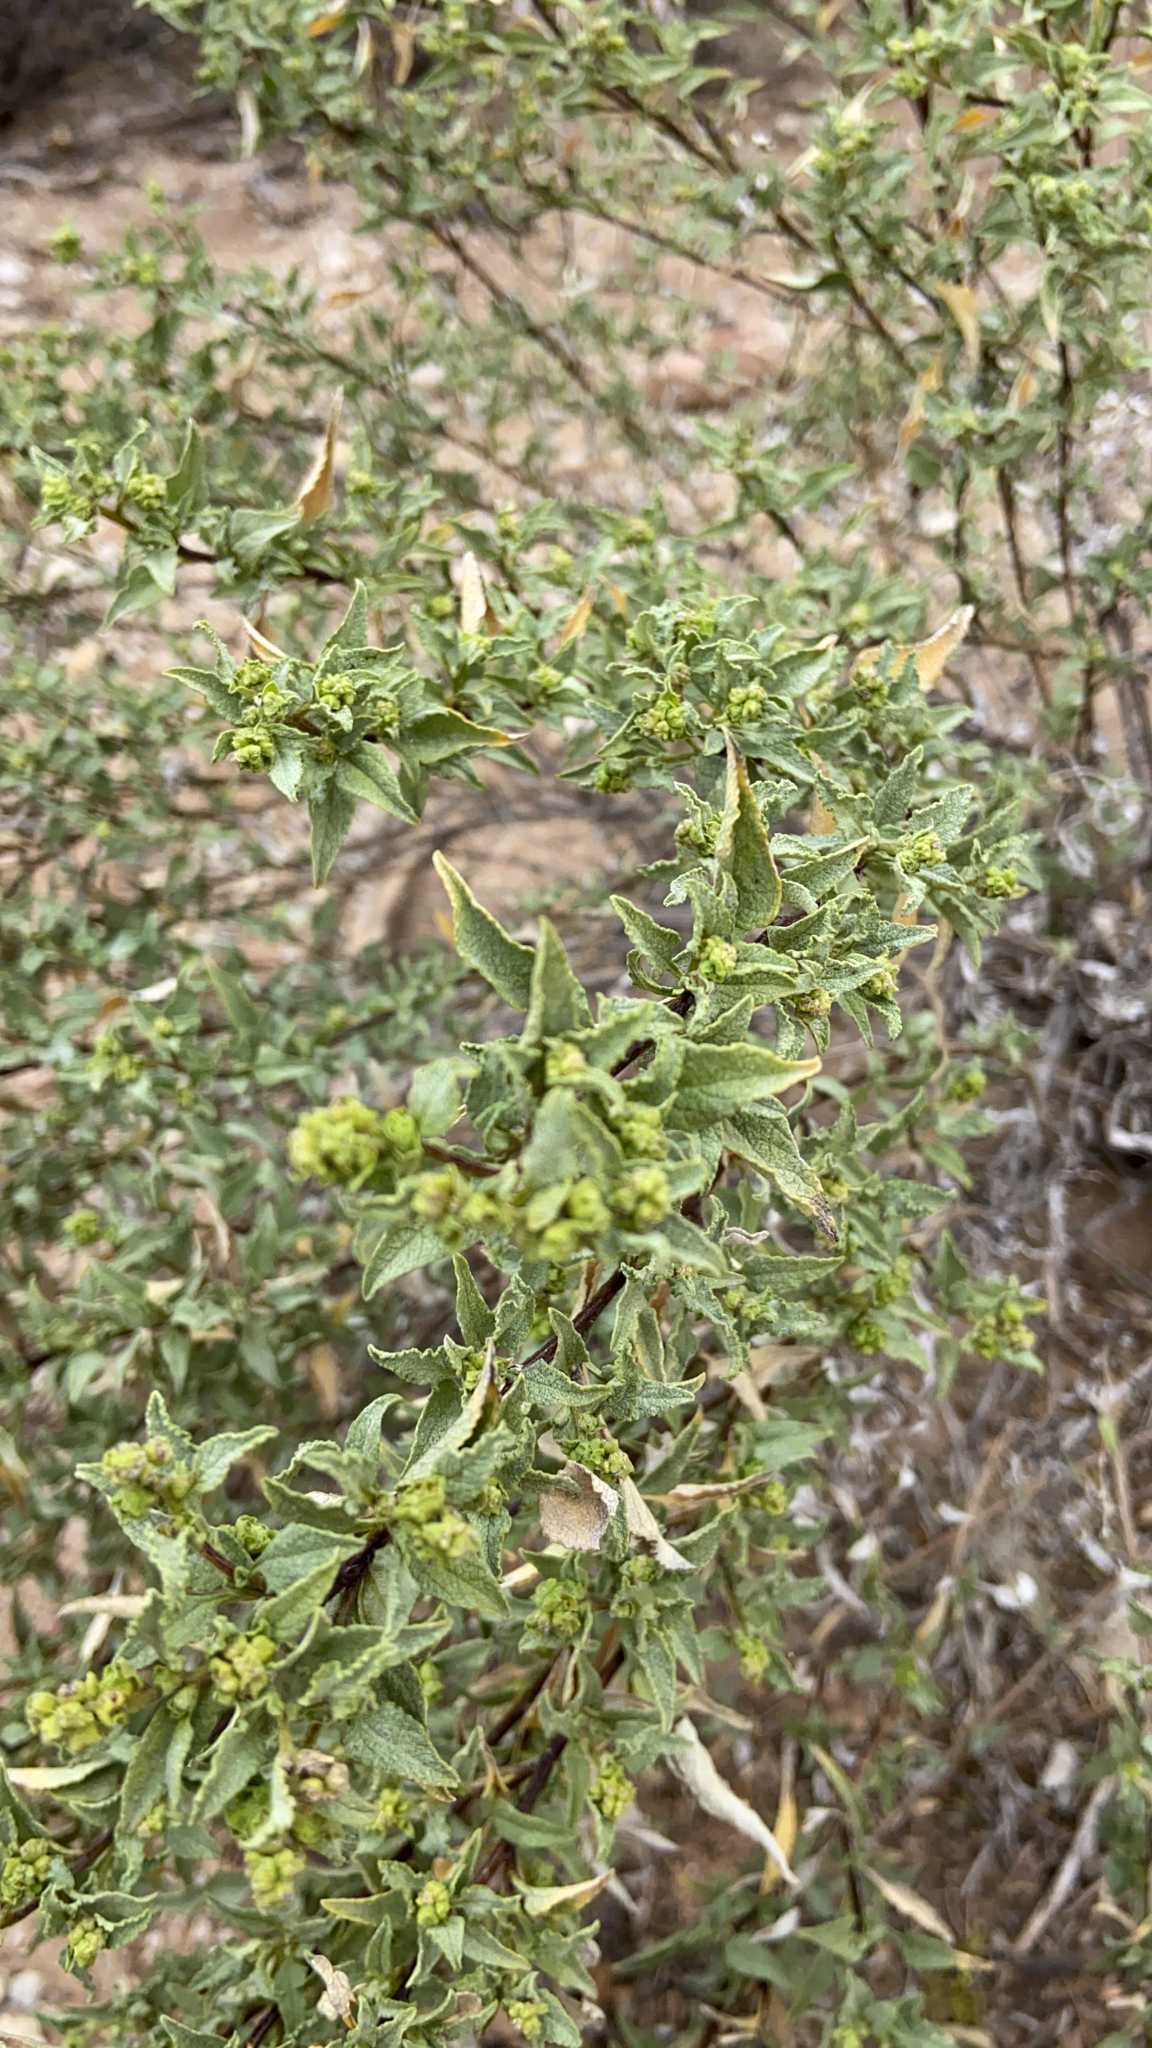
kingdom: Plantae
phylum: Tracheophyta
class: Magnoliopsida
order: Asterales
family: Asteraceae
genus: Ambrosia
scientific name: Ambrosia deltoidea
